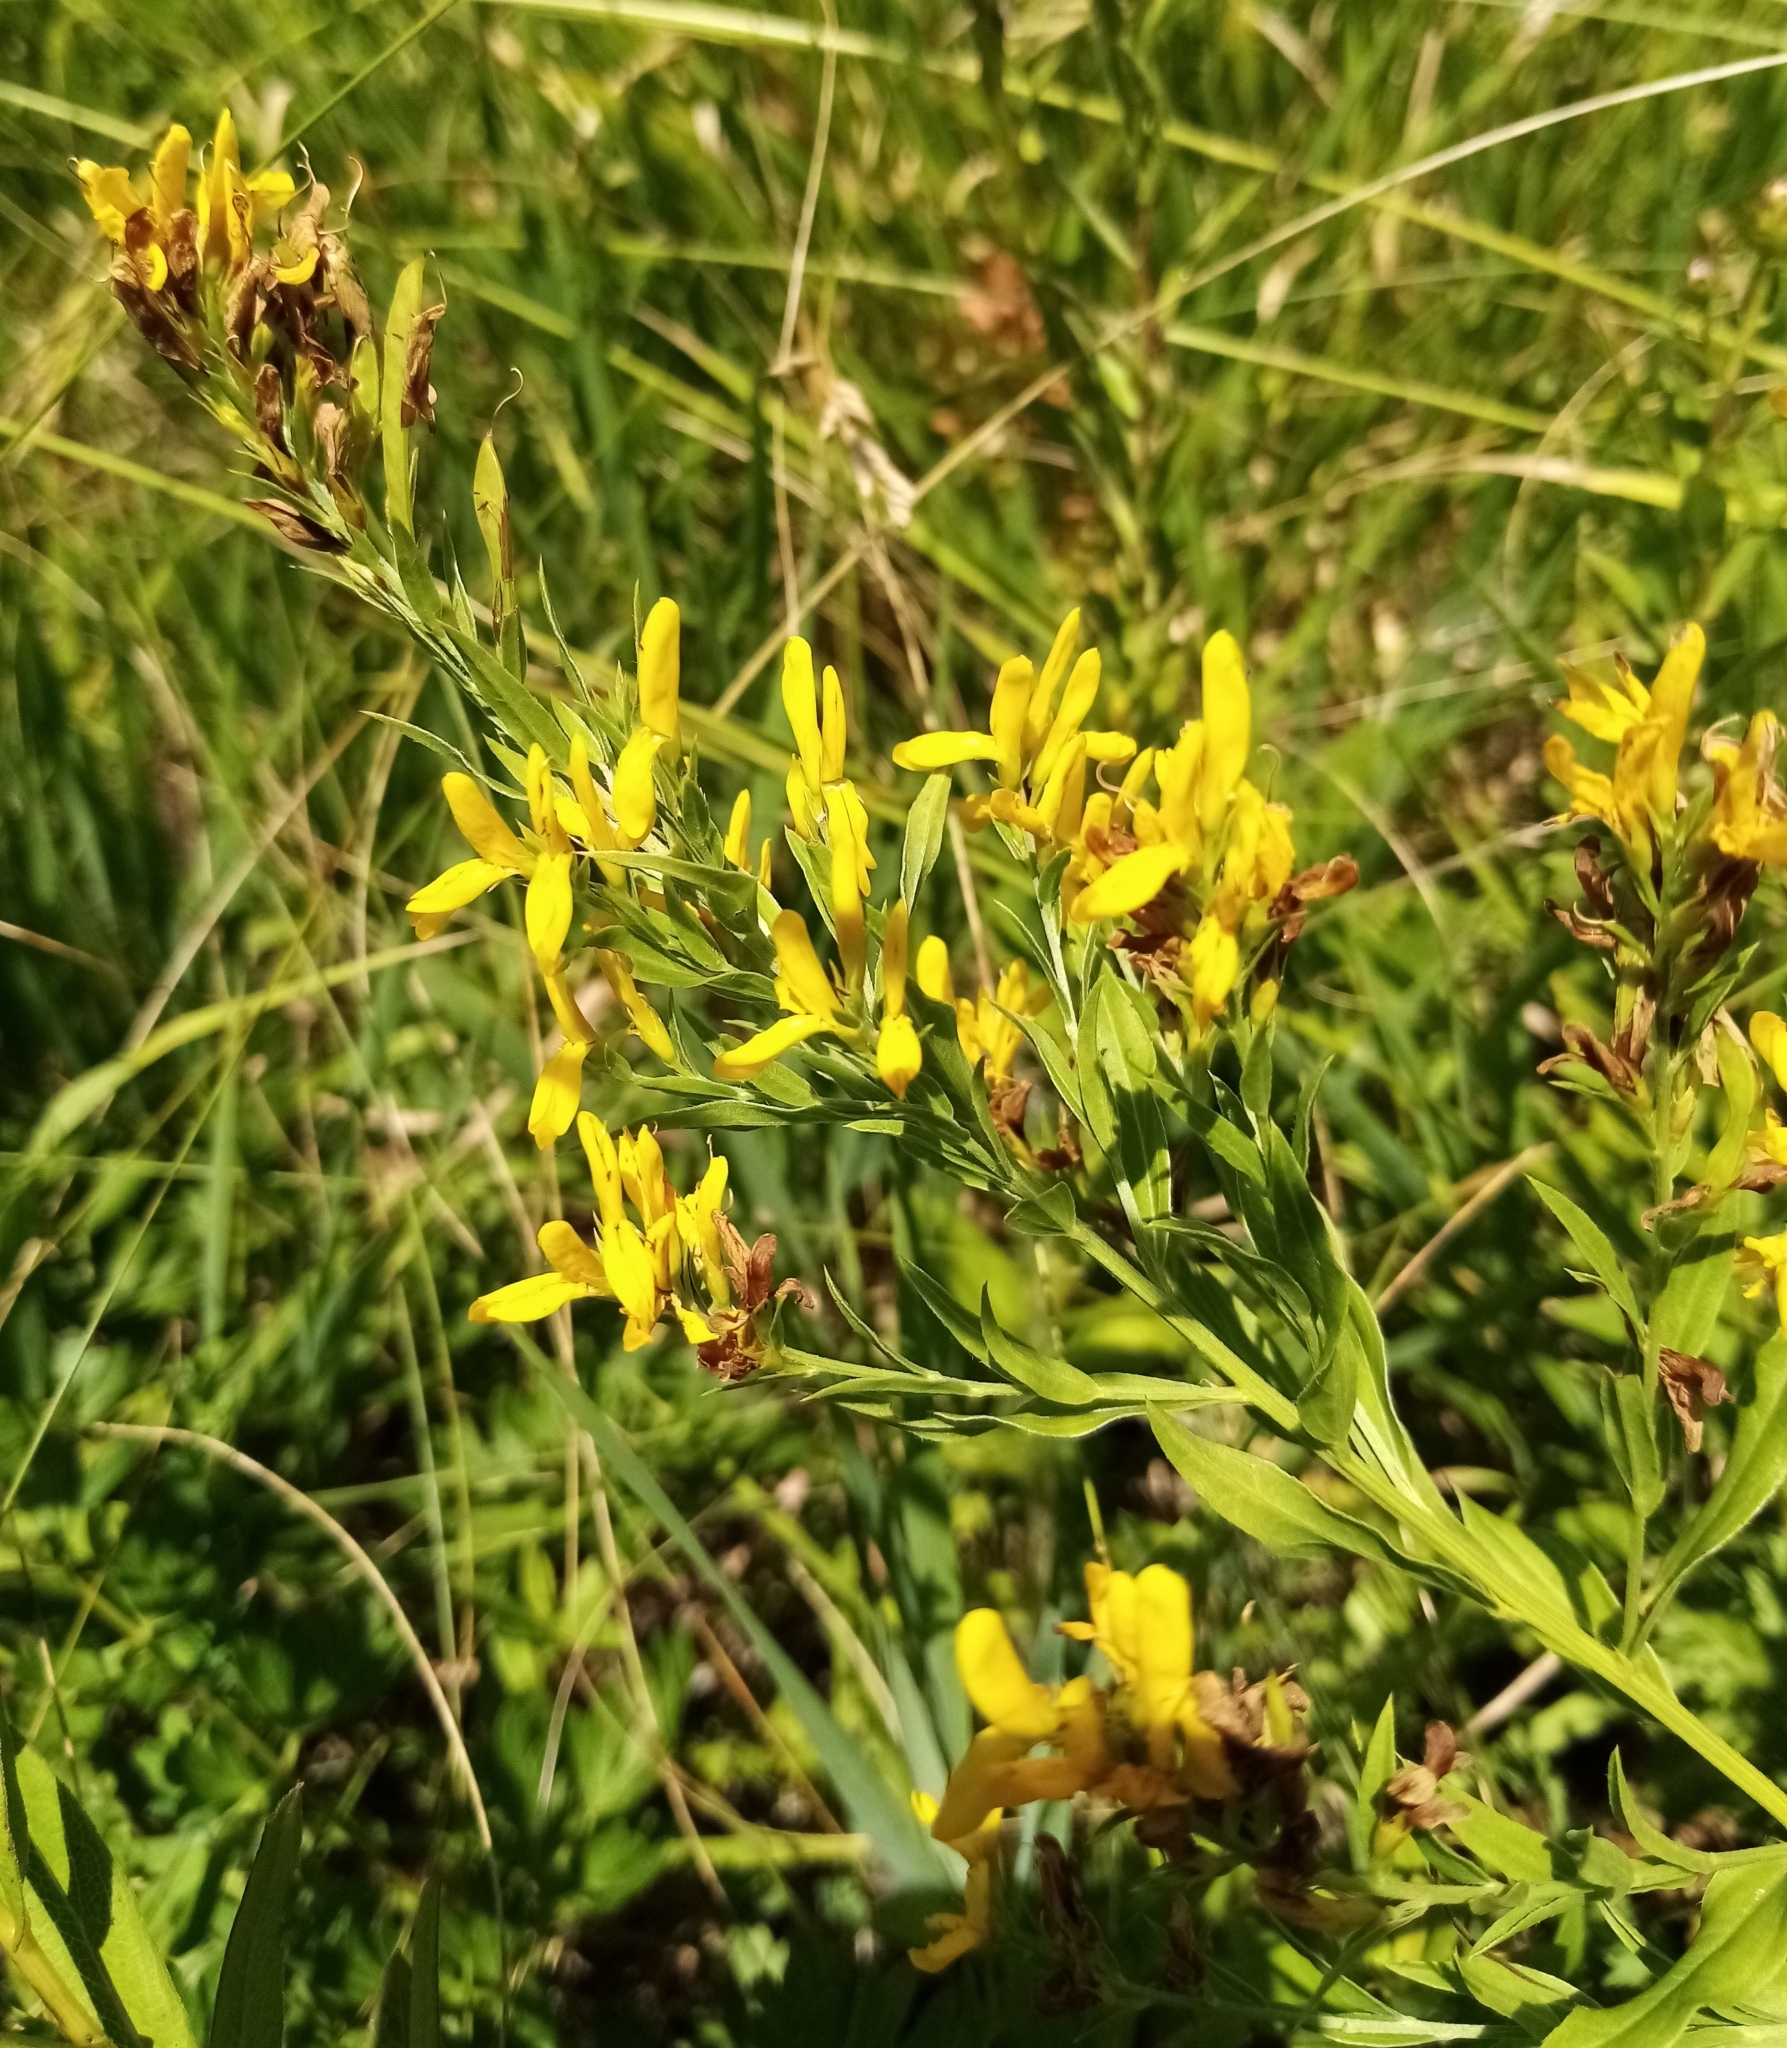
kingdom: Plantae
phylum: Tracheophyta
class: Magnoliopsida
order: Fabales
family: Fabaceae
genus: Genista
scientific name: Genista tinctoria
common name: Dyer's greenweed
